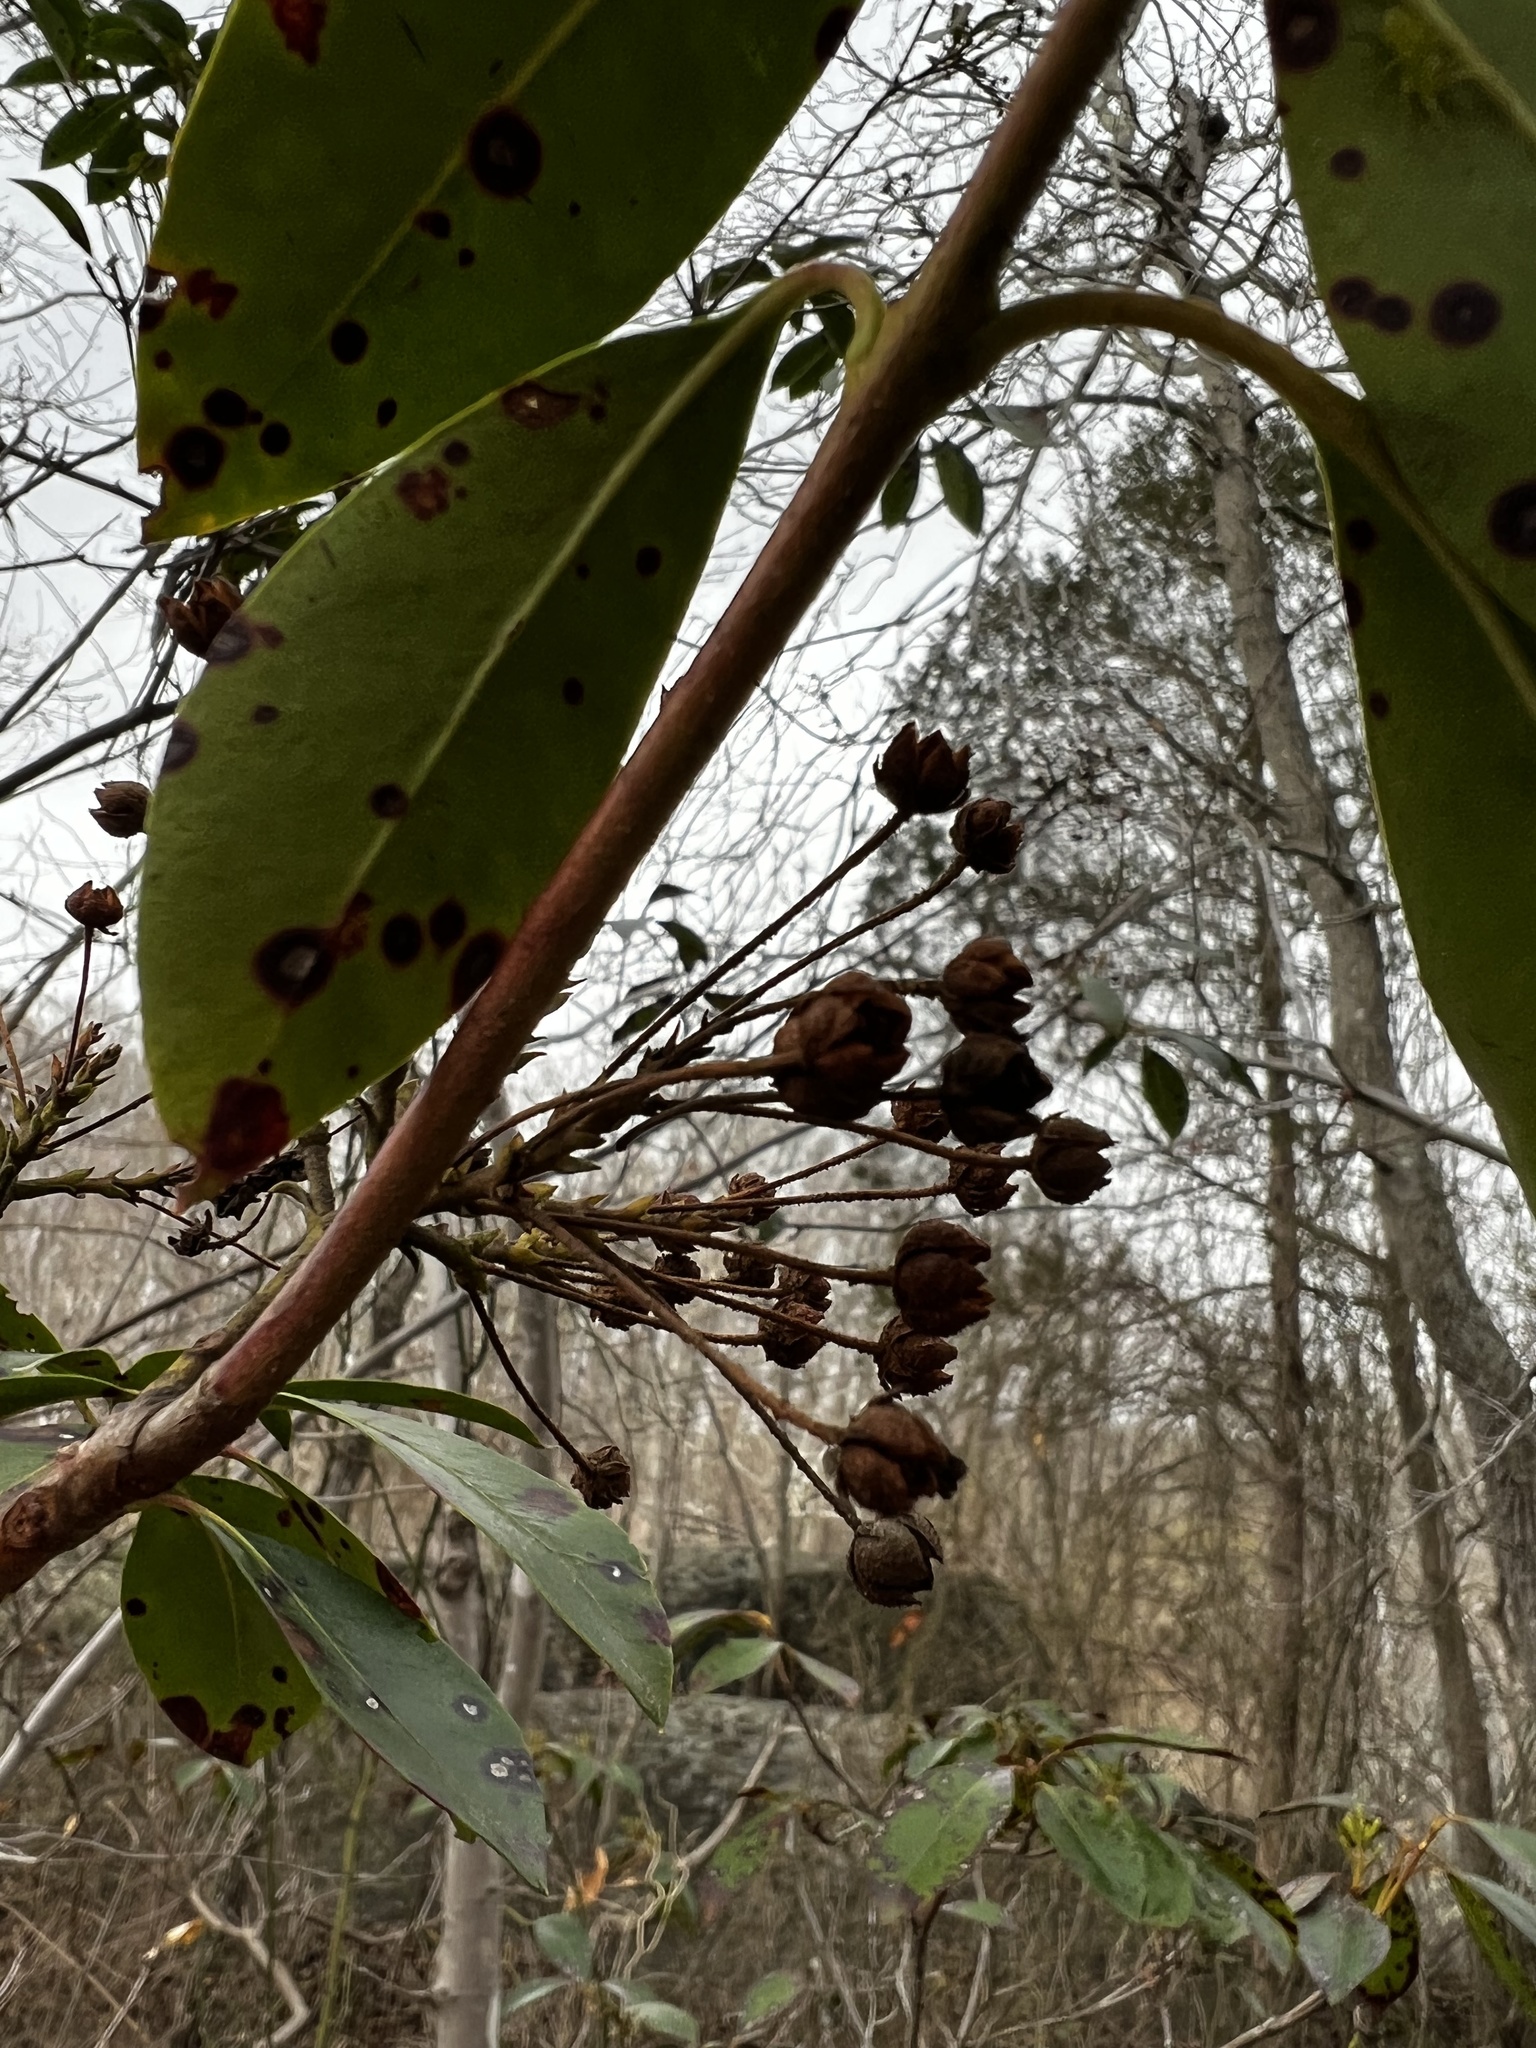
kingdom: Fungi
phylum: Ascomycota
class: Dothideomycetes
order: Mycosphaerellales
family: Mycosphaerellaceae
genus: Mycosphaerella
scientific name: Mycosphaerella colorata
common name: Mountain laurel leaf spot
